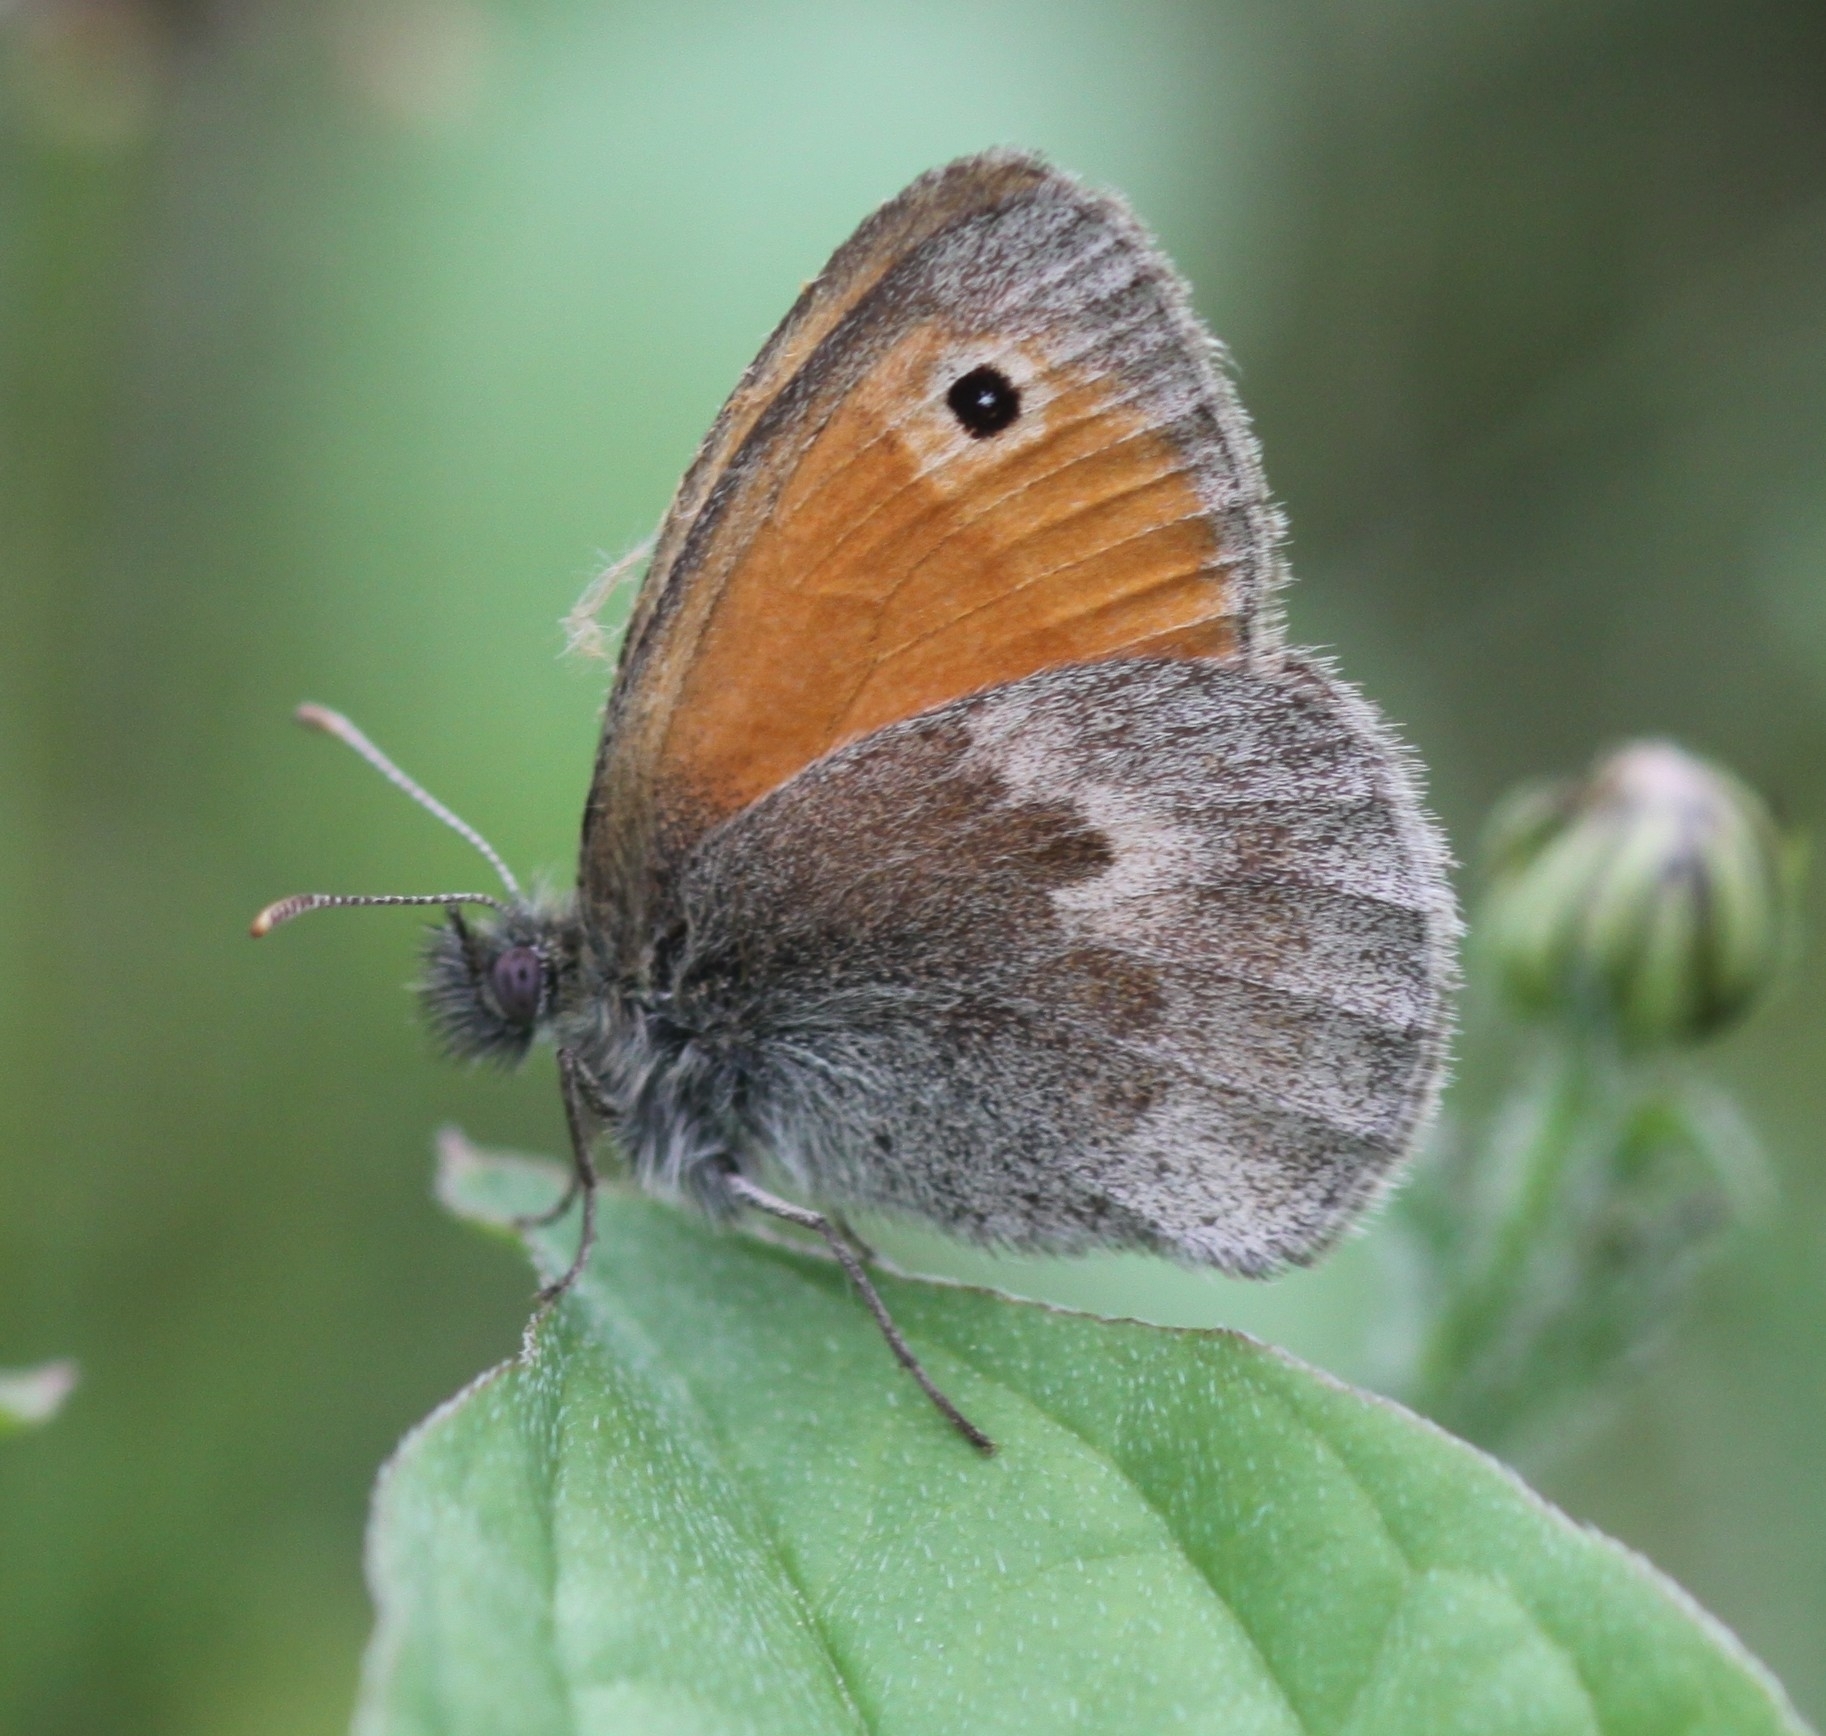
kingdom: Animalia
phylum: Arthropoda
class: Insecta
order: Lepidoptera
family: Nymphalidae
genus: Coenonympha
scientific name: Coenonympha pamphilus
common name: Small heath
